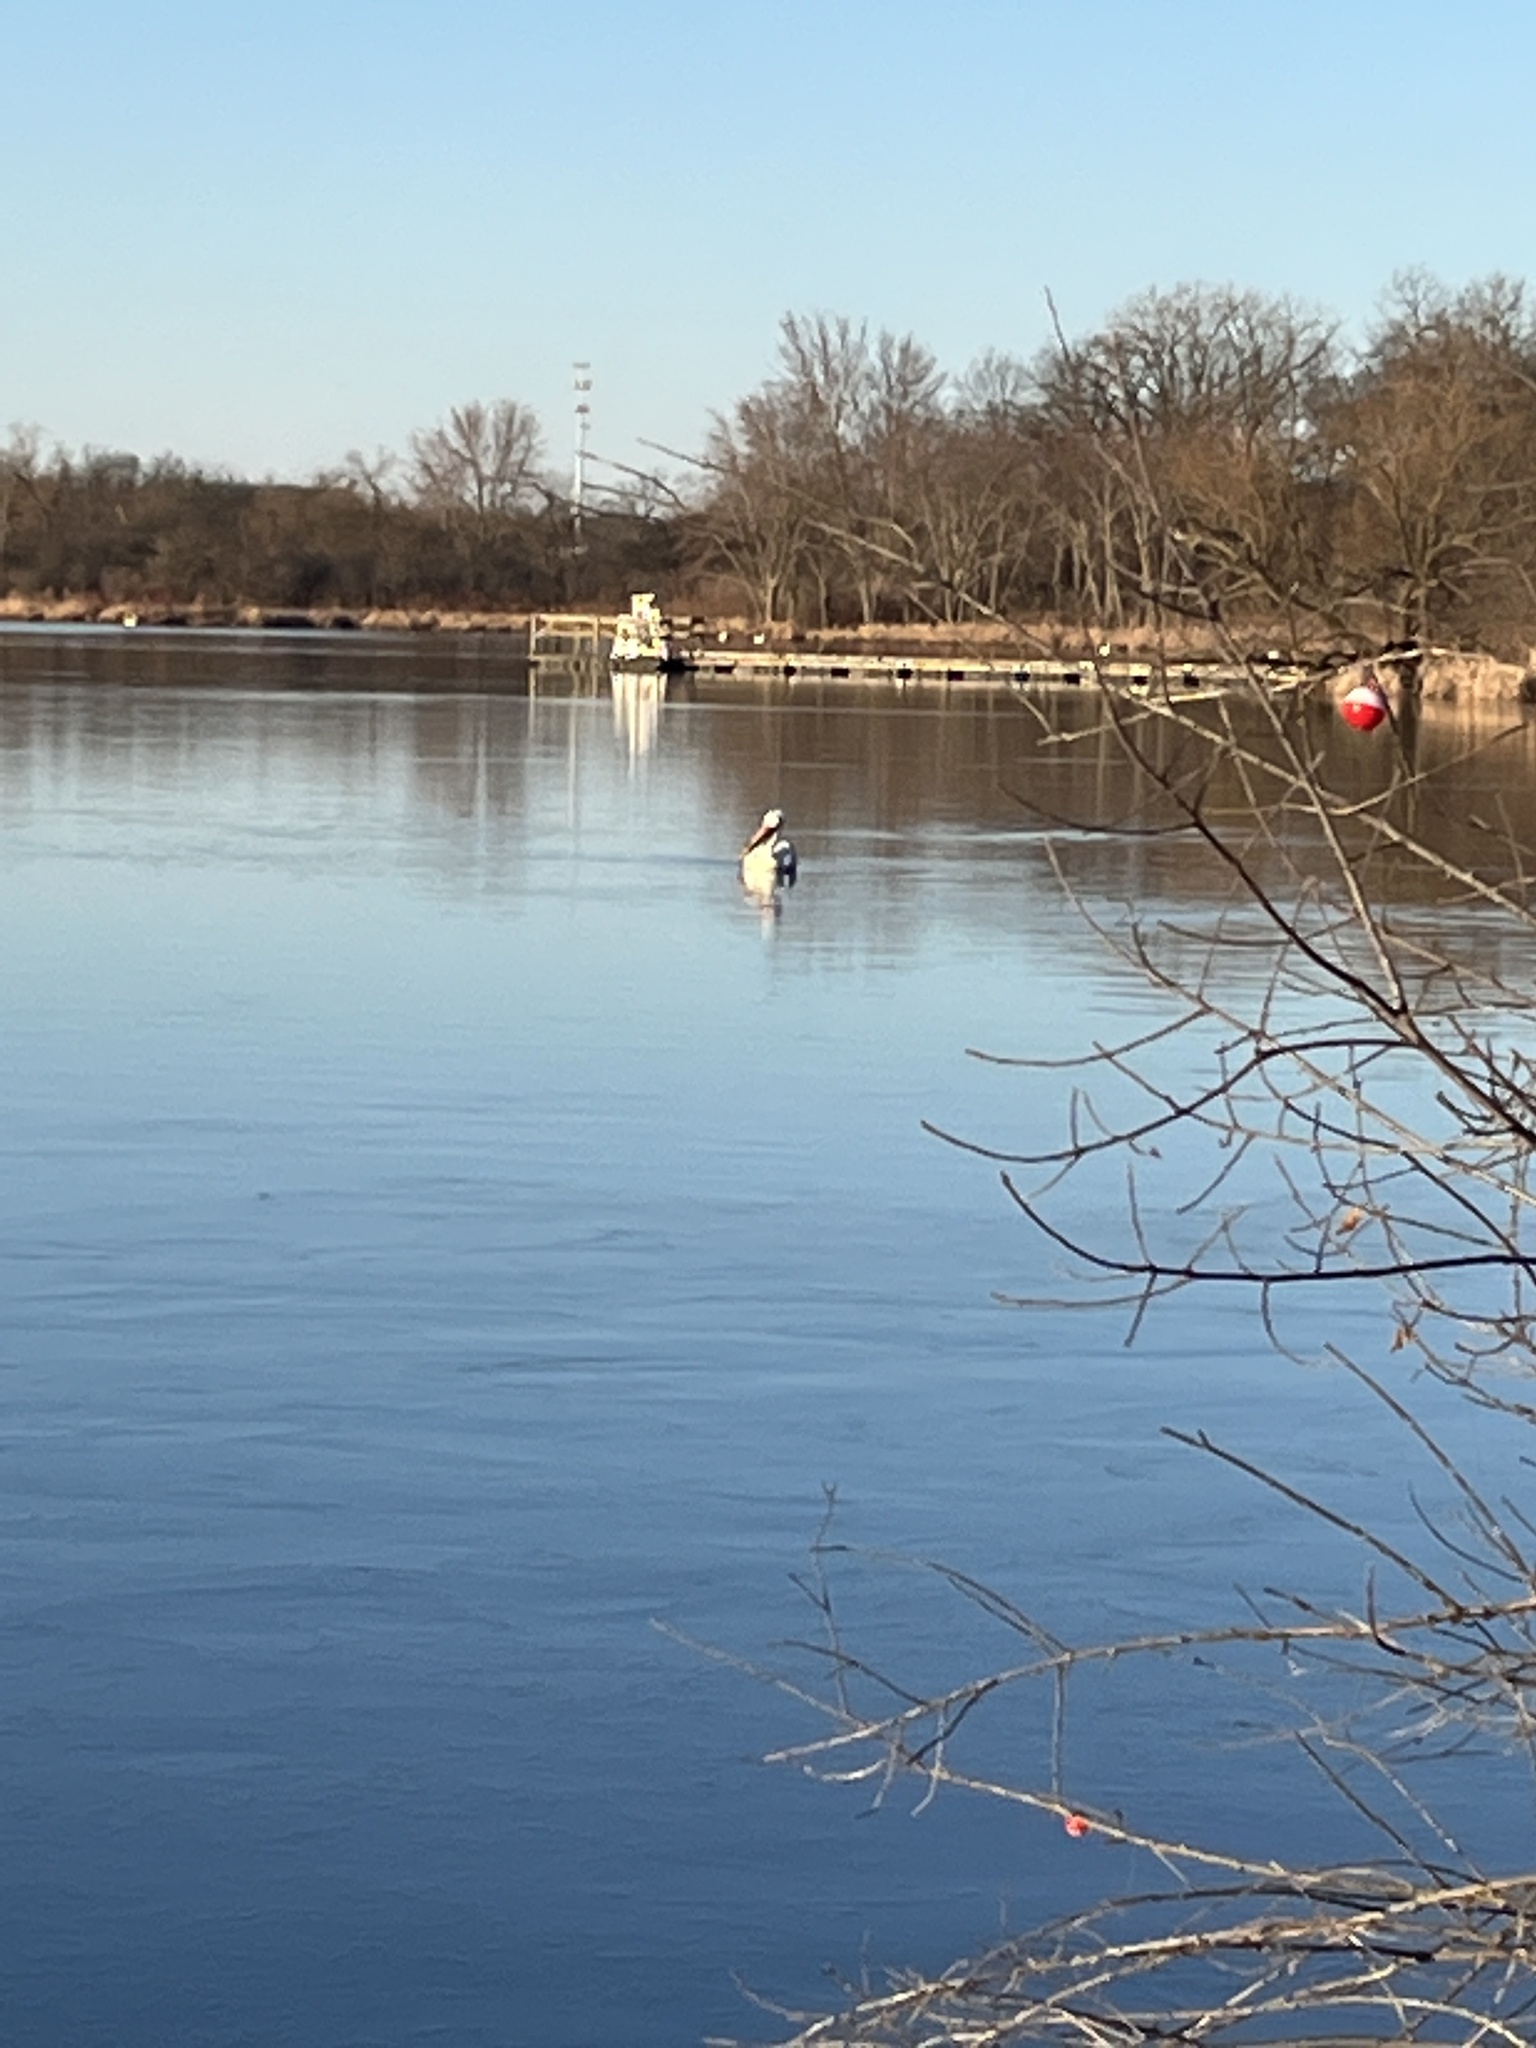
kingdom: Animalia
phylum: Chordata
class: Aves
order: Pelecaniformes
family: Pelecanidae
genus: Pelecanus
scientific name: Pelecanus erythrorhynchos
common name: American white pelican
